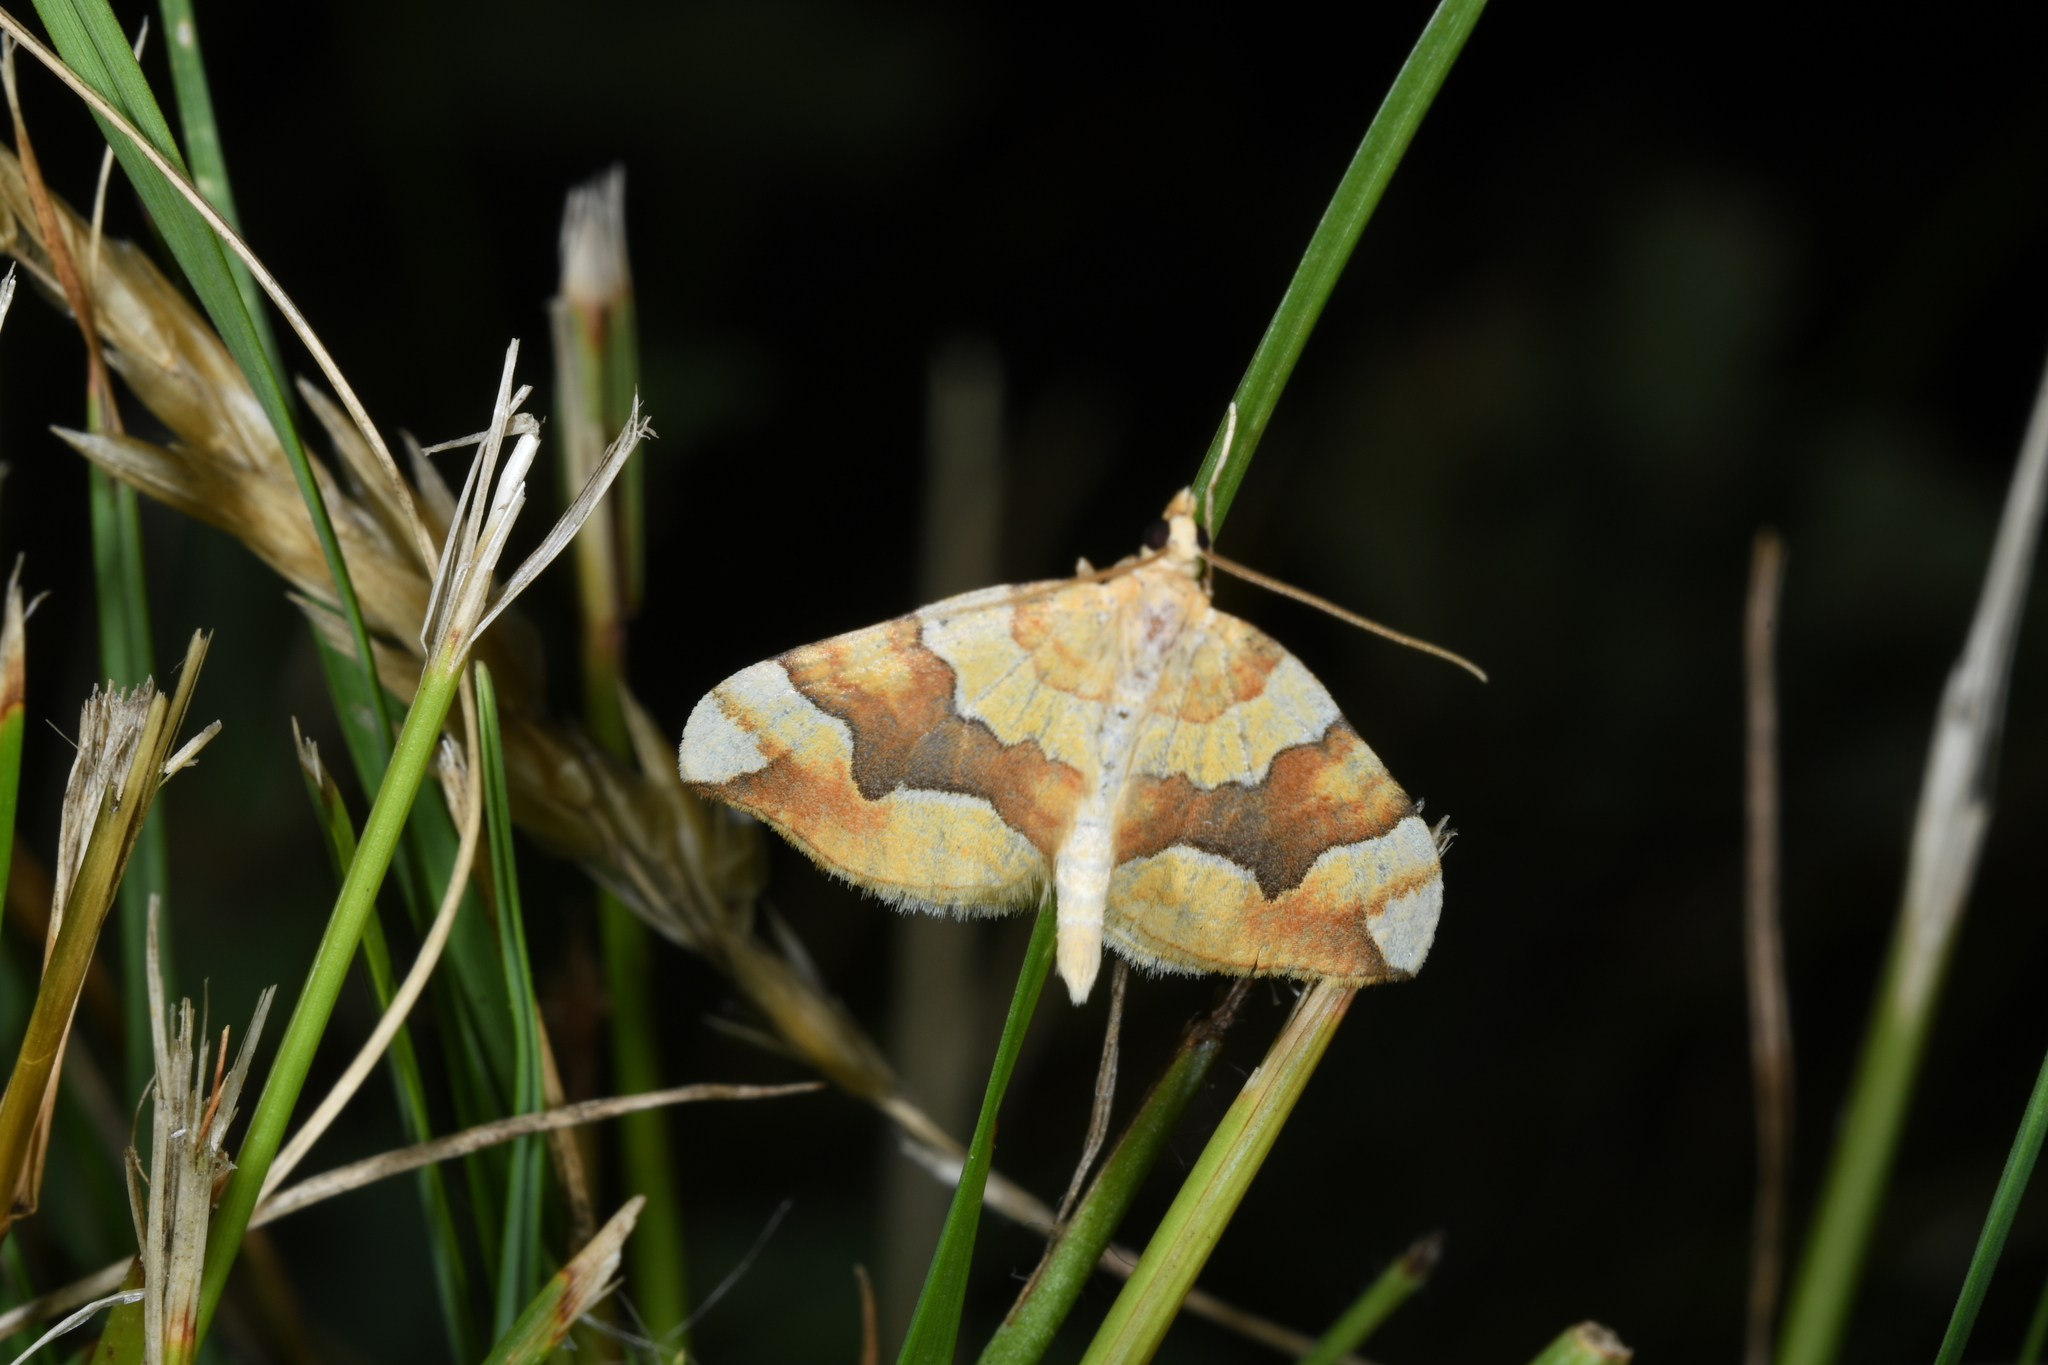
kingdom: Animalia
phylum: Arthropoda
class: Insecta
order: Lepidoptera
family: Geometridae
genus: Cidaria
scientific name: Cidaria fulvata
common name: Barred yellow
